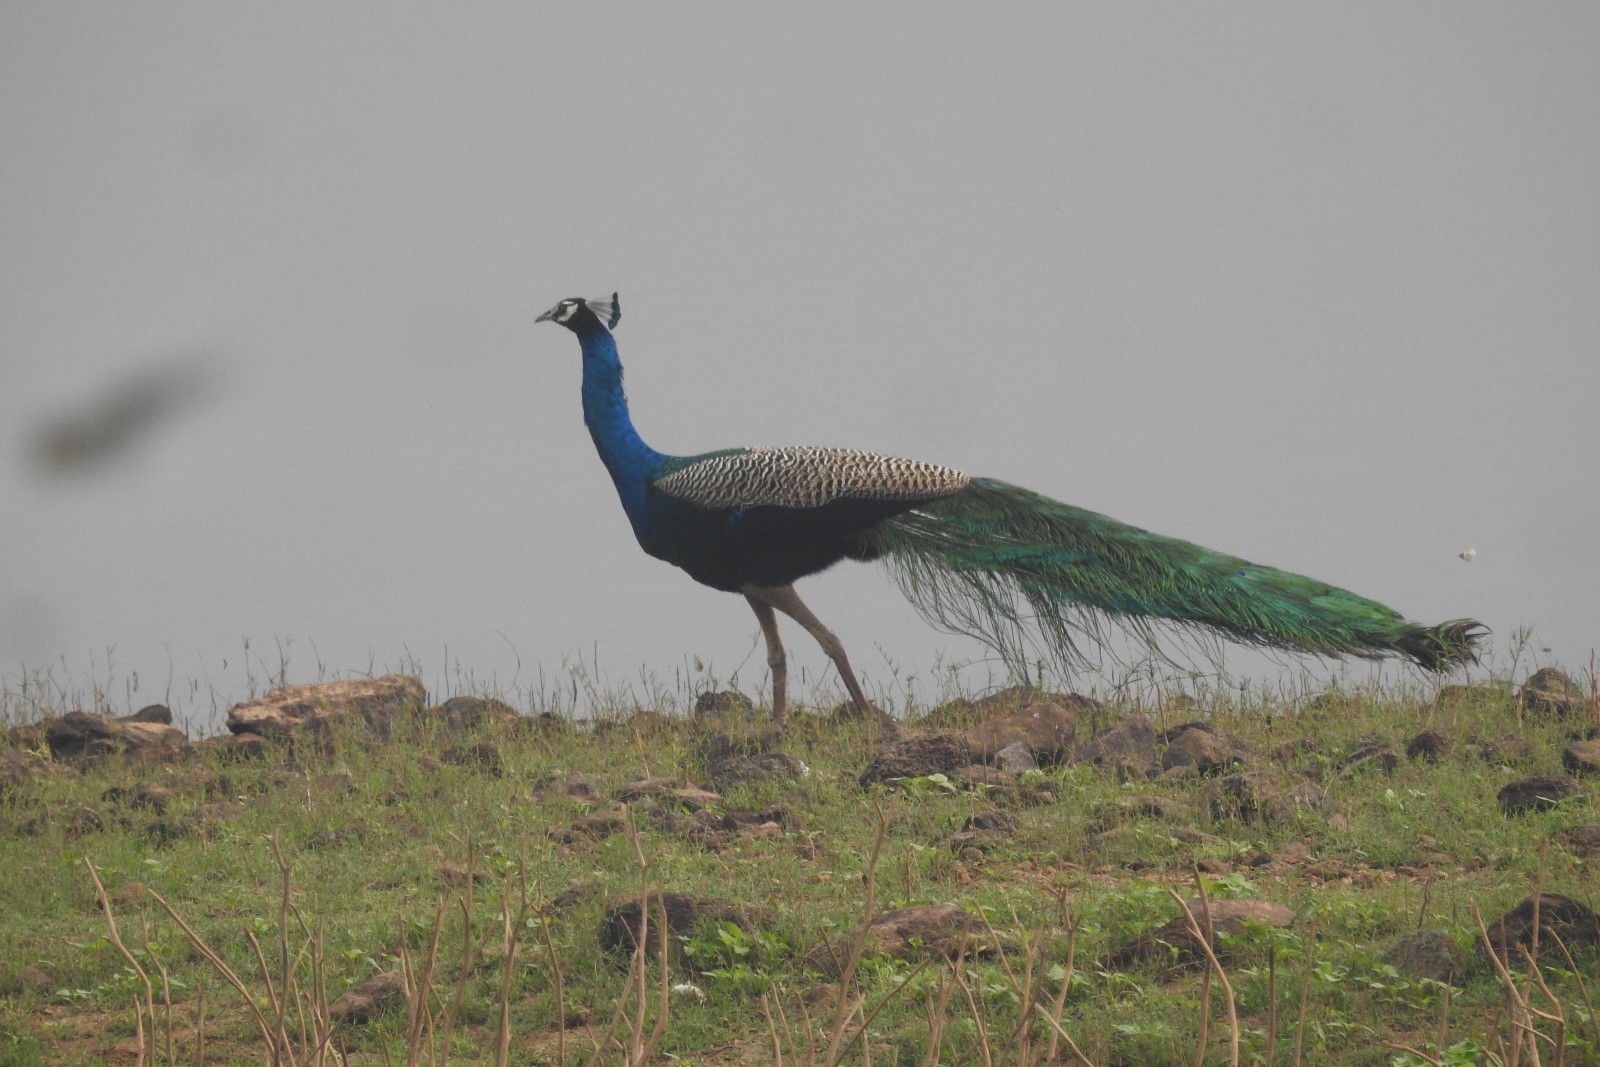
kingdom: Animalia
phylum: Chordata
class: Aves
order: Galliformes
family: Phasianidae
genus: Pavo
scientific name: Pavo cristatus
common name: Indian peafowl
